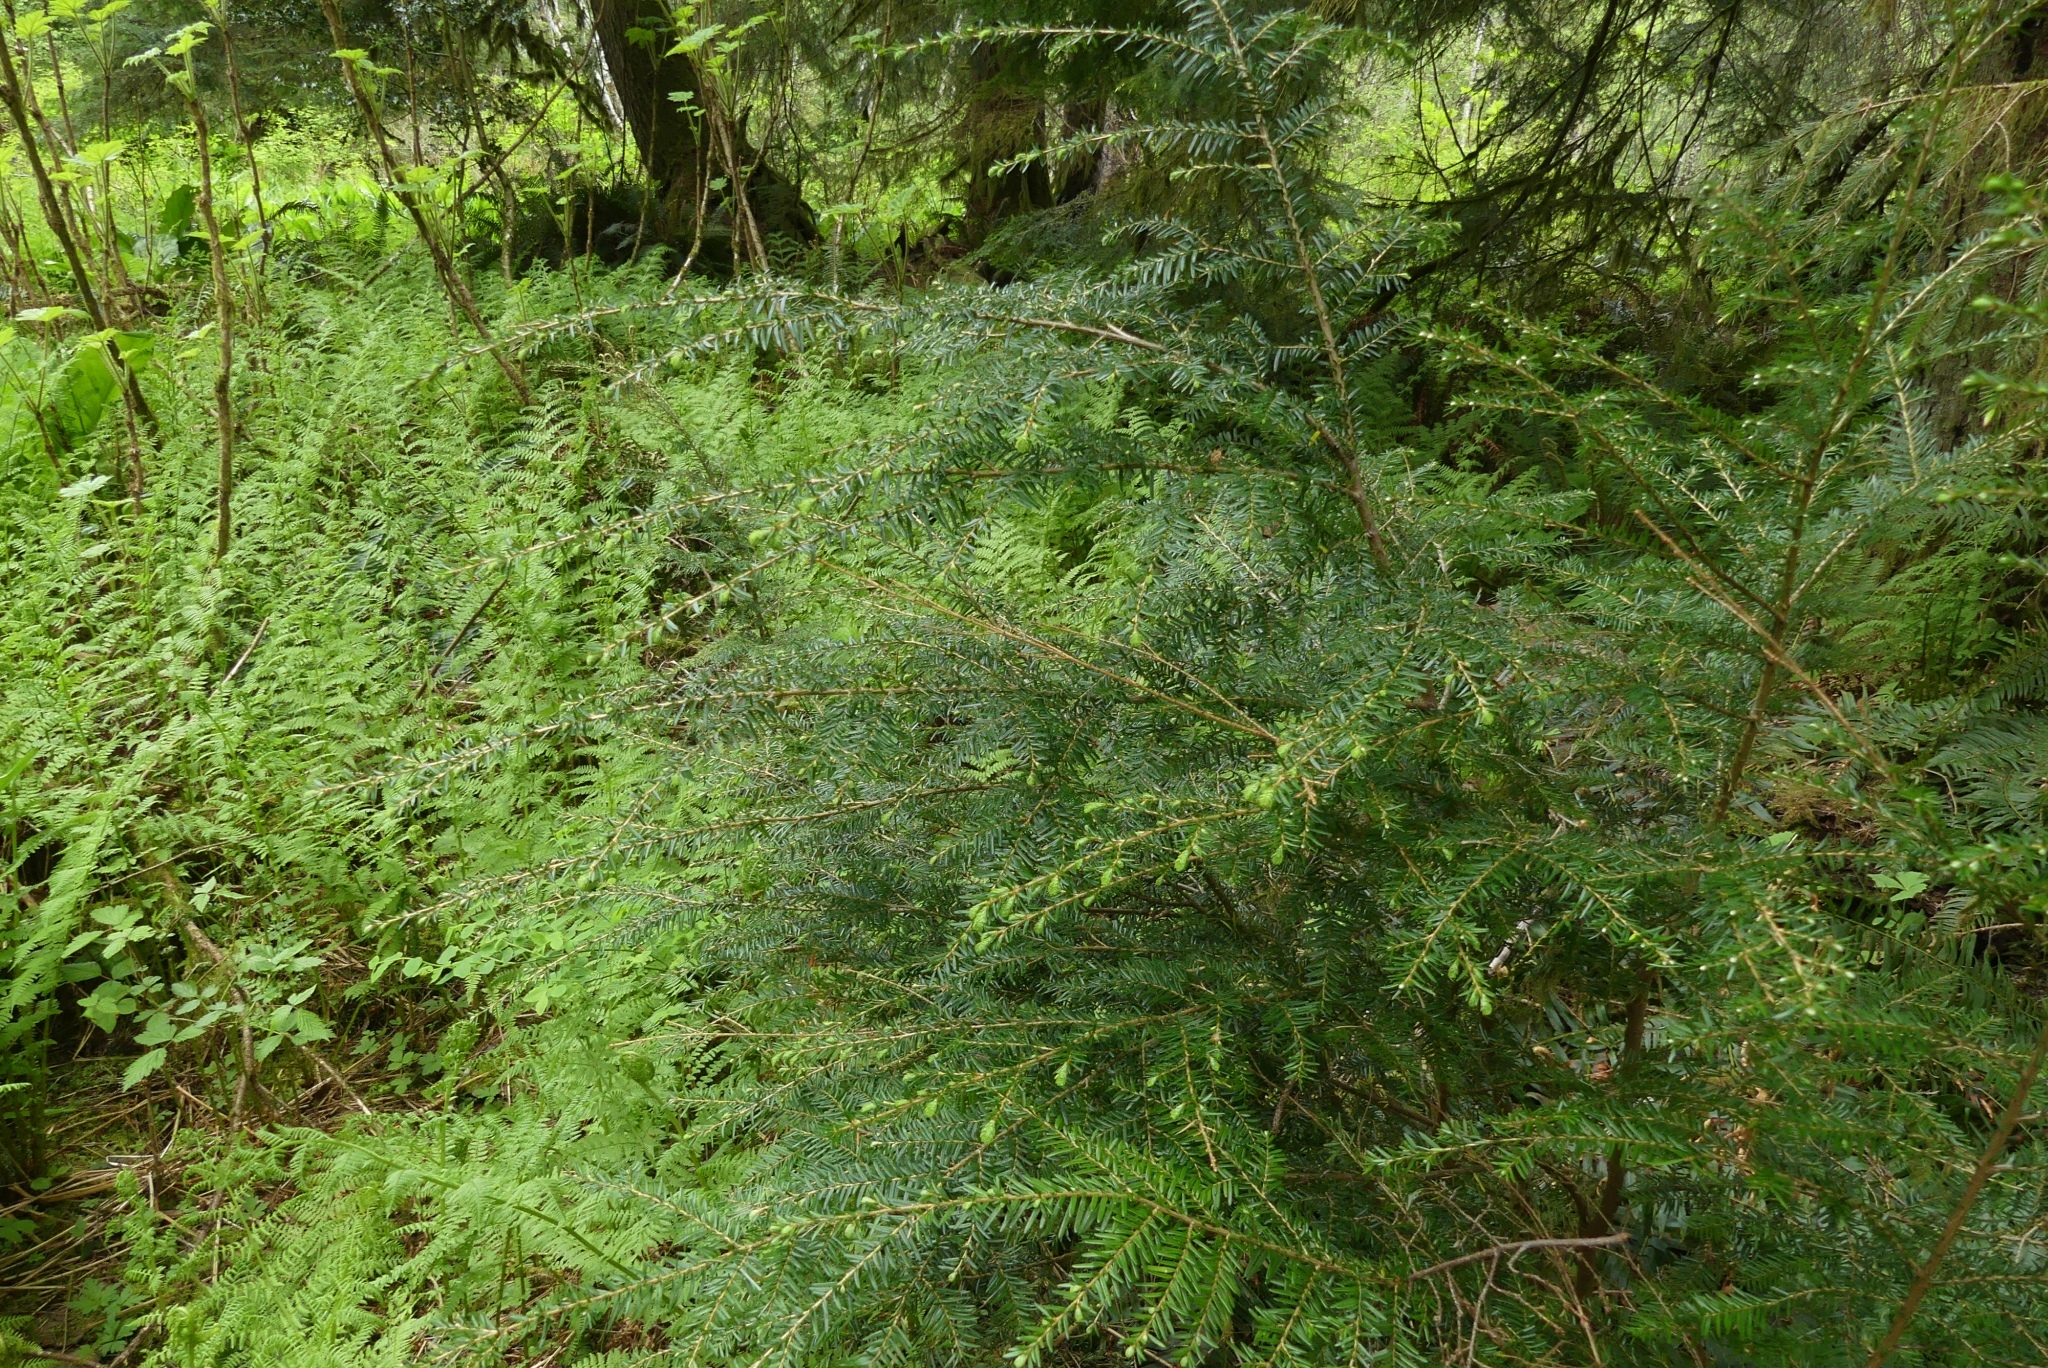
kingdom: Plantae
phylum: Tracheophyta
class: Pinopsida
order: Pinales
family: Pinaceae
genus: Tsuga
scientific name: Tsuga heterophylla
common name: Western hemlock
